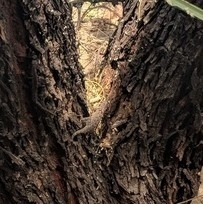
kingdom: Animalia
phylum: Chordata
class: Squamata
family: Phrynosomatidae
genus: Urosaurus
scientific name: Urosaurus ornatus
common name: Ornate tree lizard
